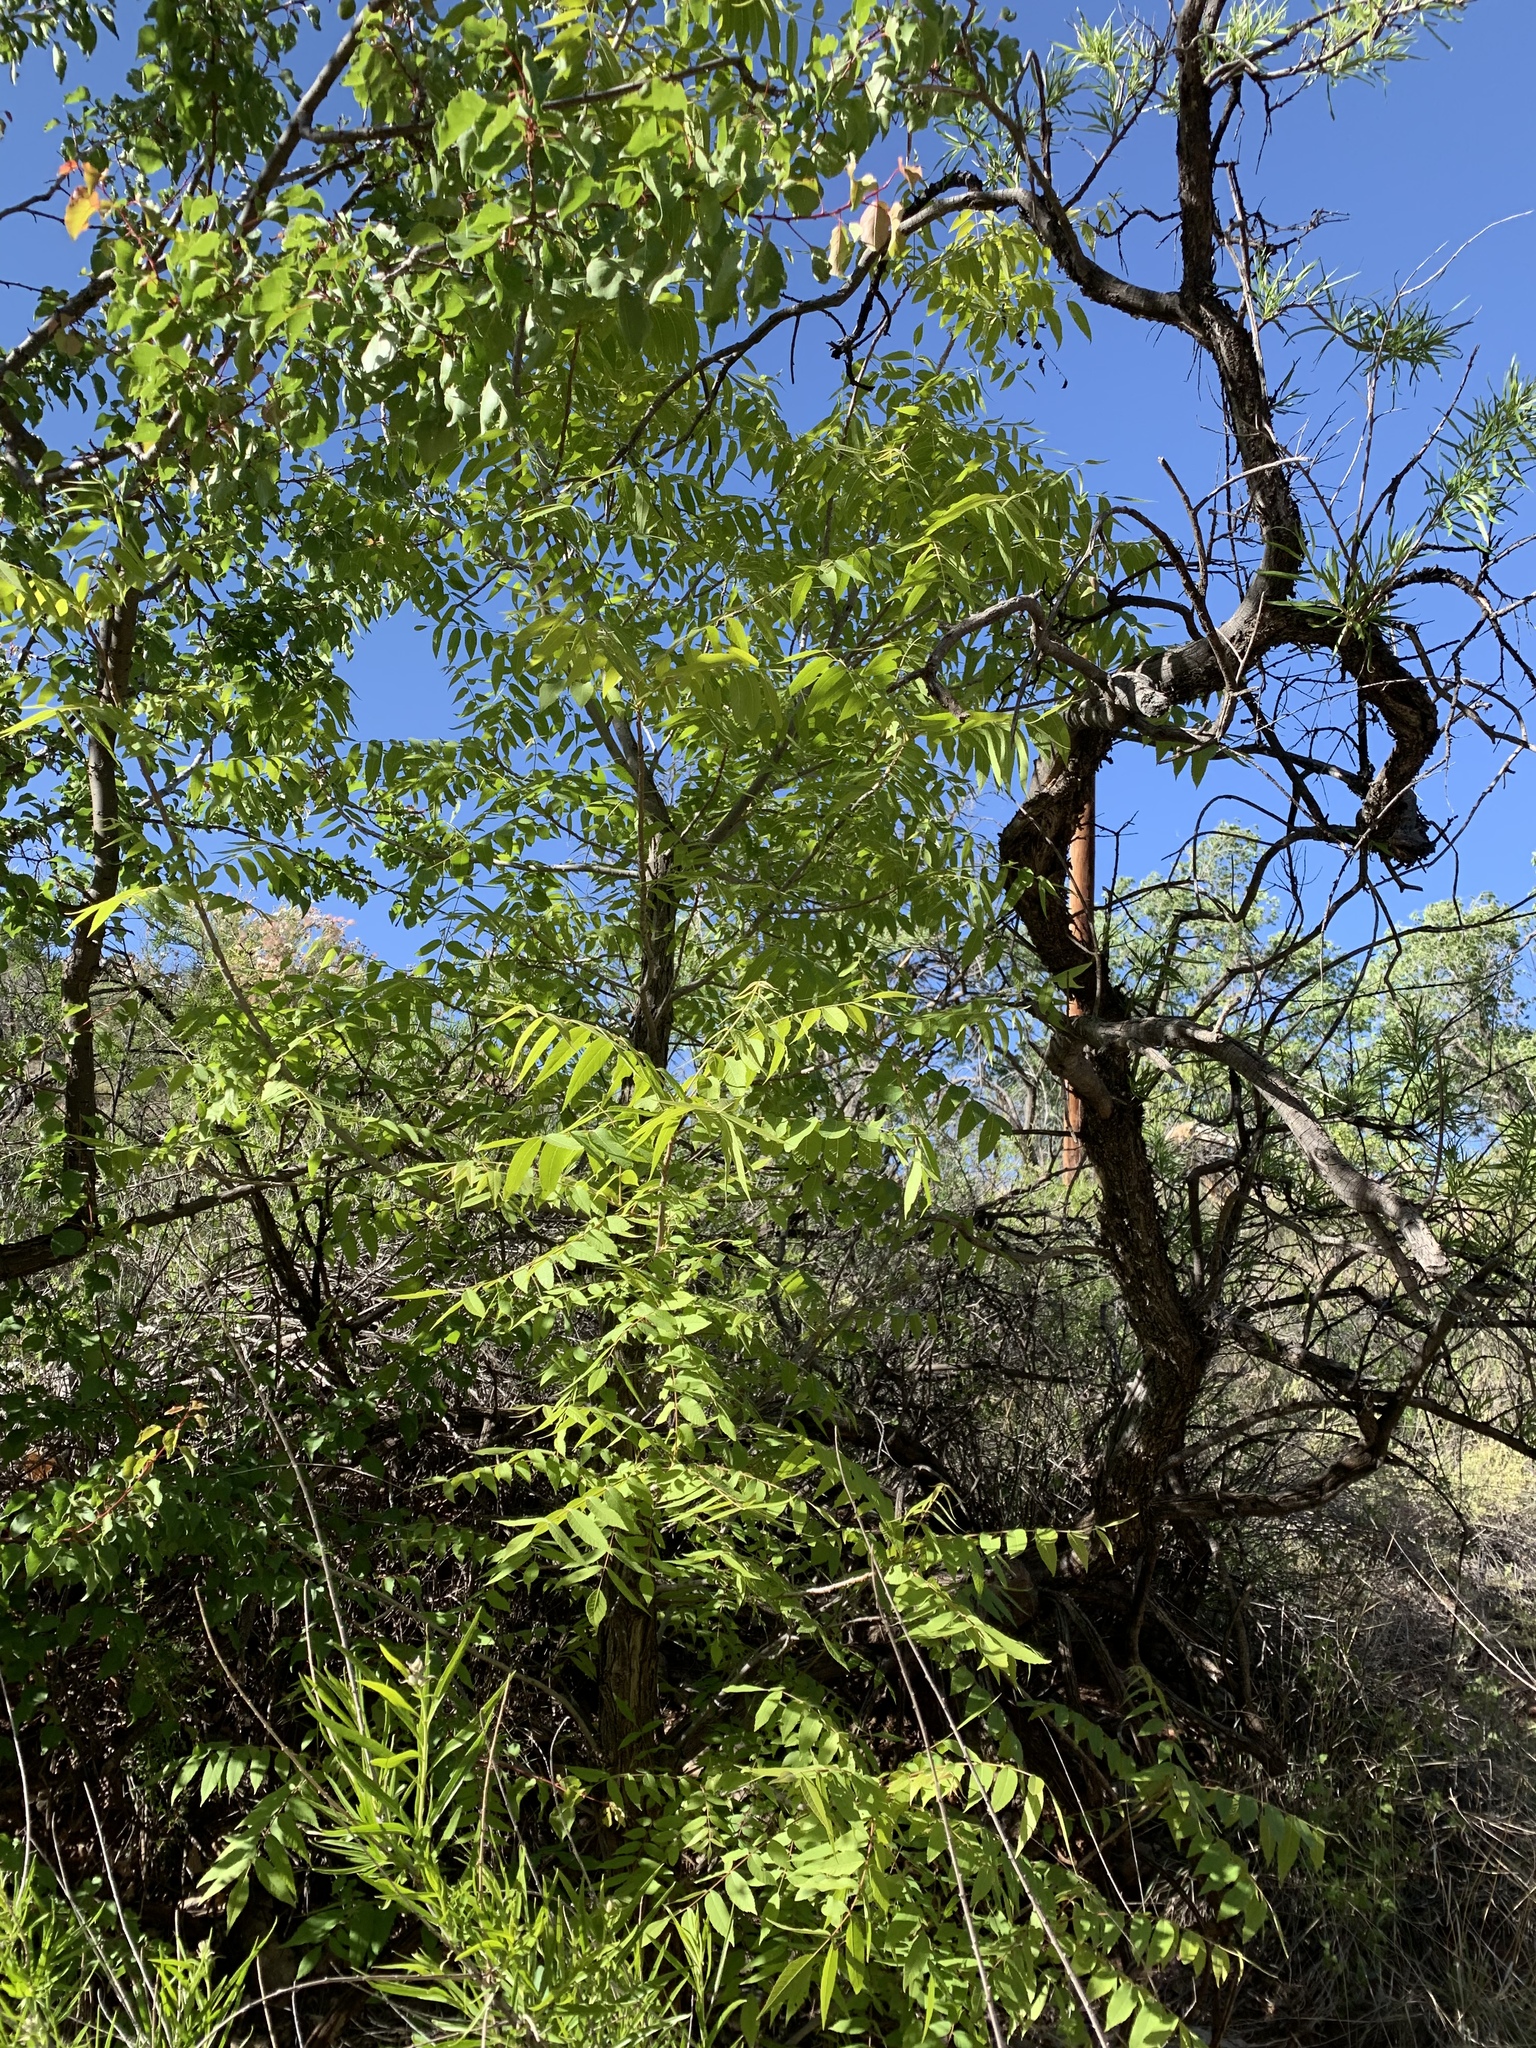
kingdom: Plantae
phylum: Tracheophyta
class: Magnoliopsida
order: Fagales
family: Juglandaceae
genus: Juglans
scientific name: Juglans major
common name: Arizona walnut
